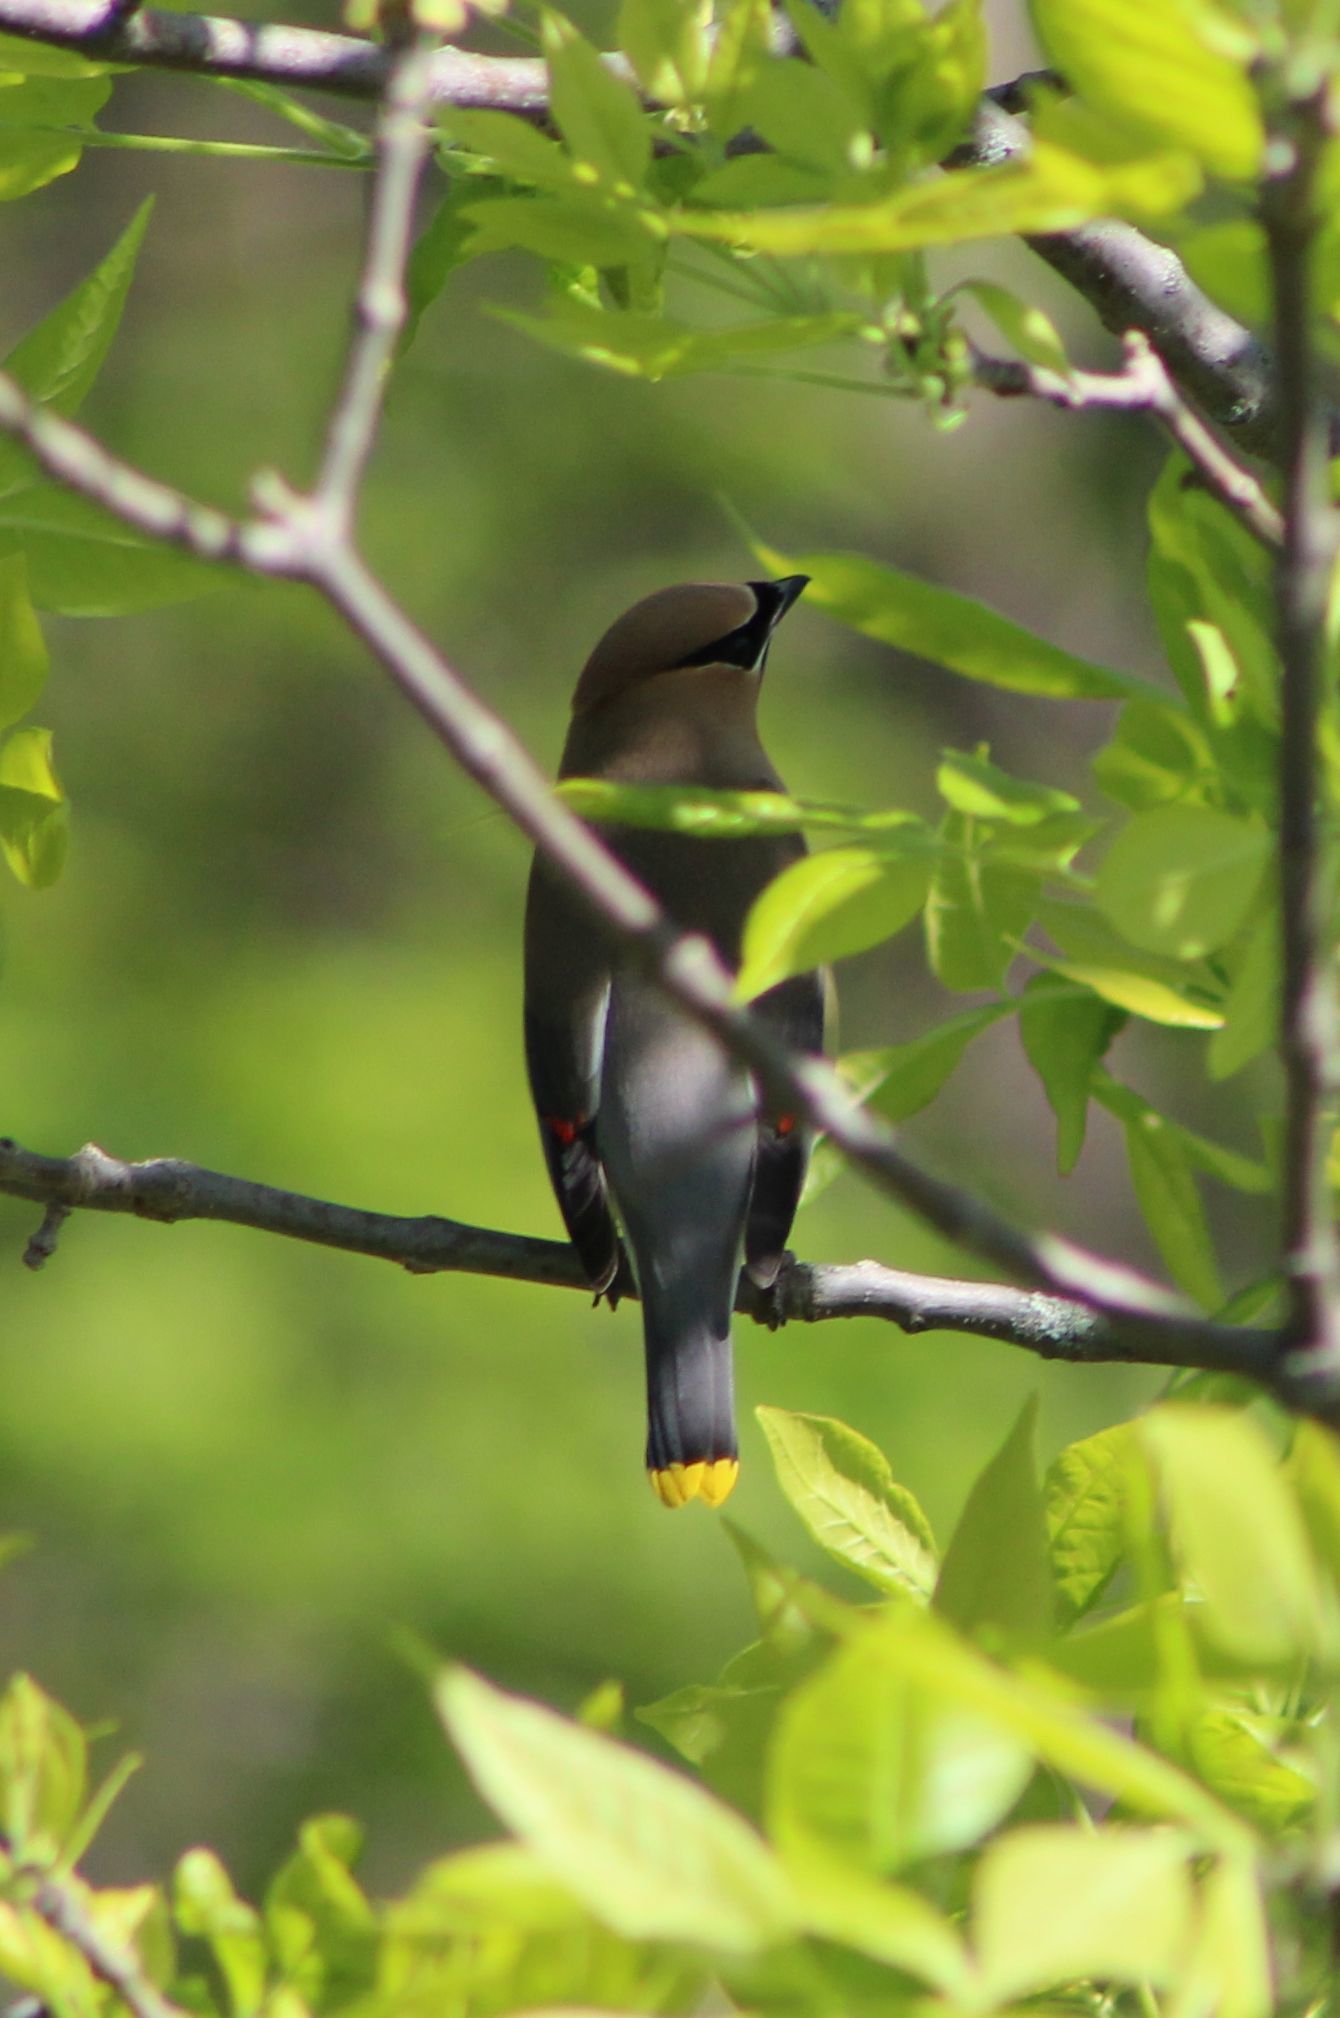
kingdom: Animalia
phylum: Chordata
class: Aves
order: Passeriformes
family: Bombycillidae
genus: Bombycilla
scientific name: Bombycilla cedrorum
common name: Cedar waxwing
